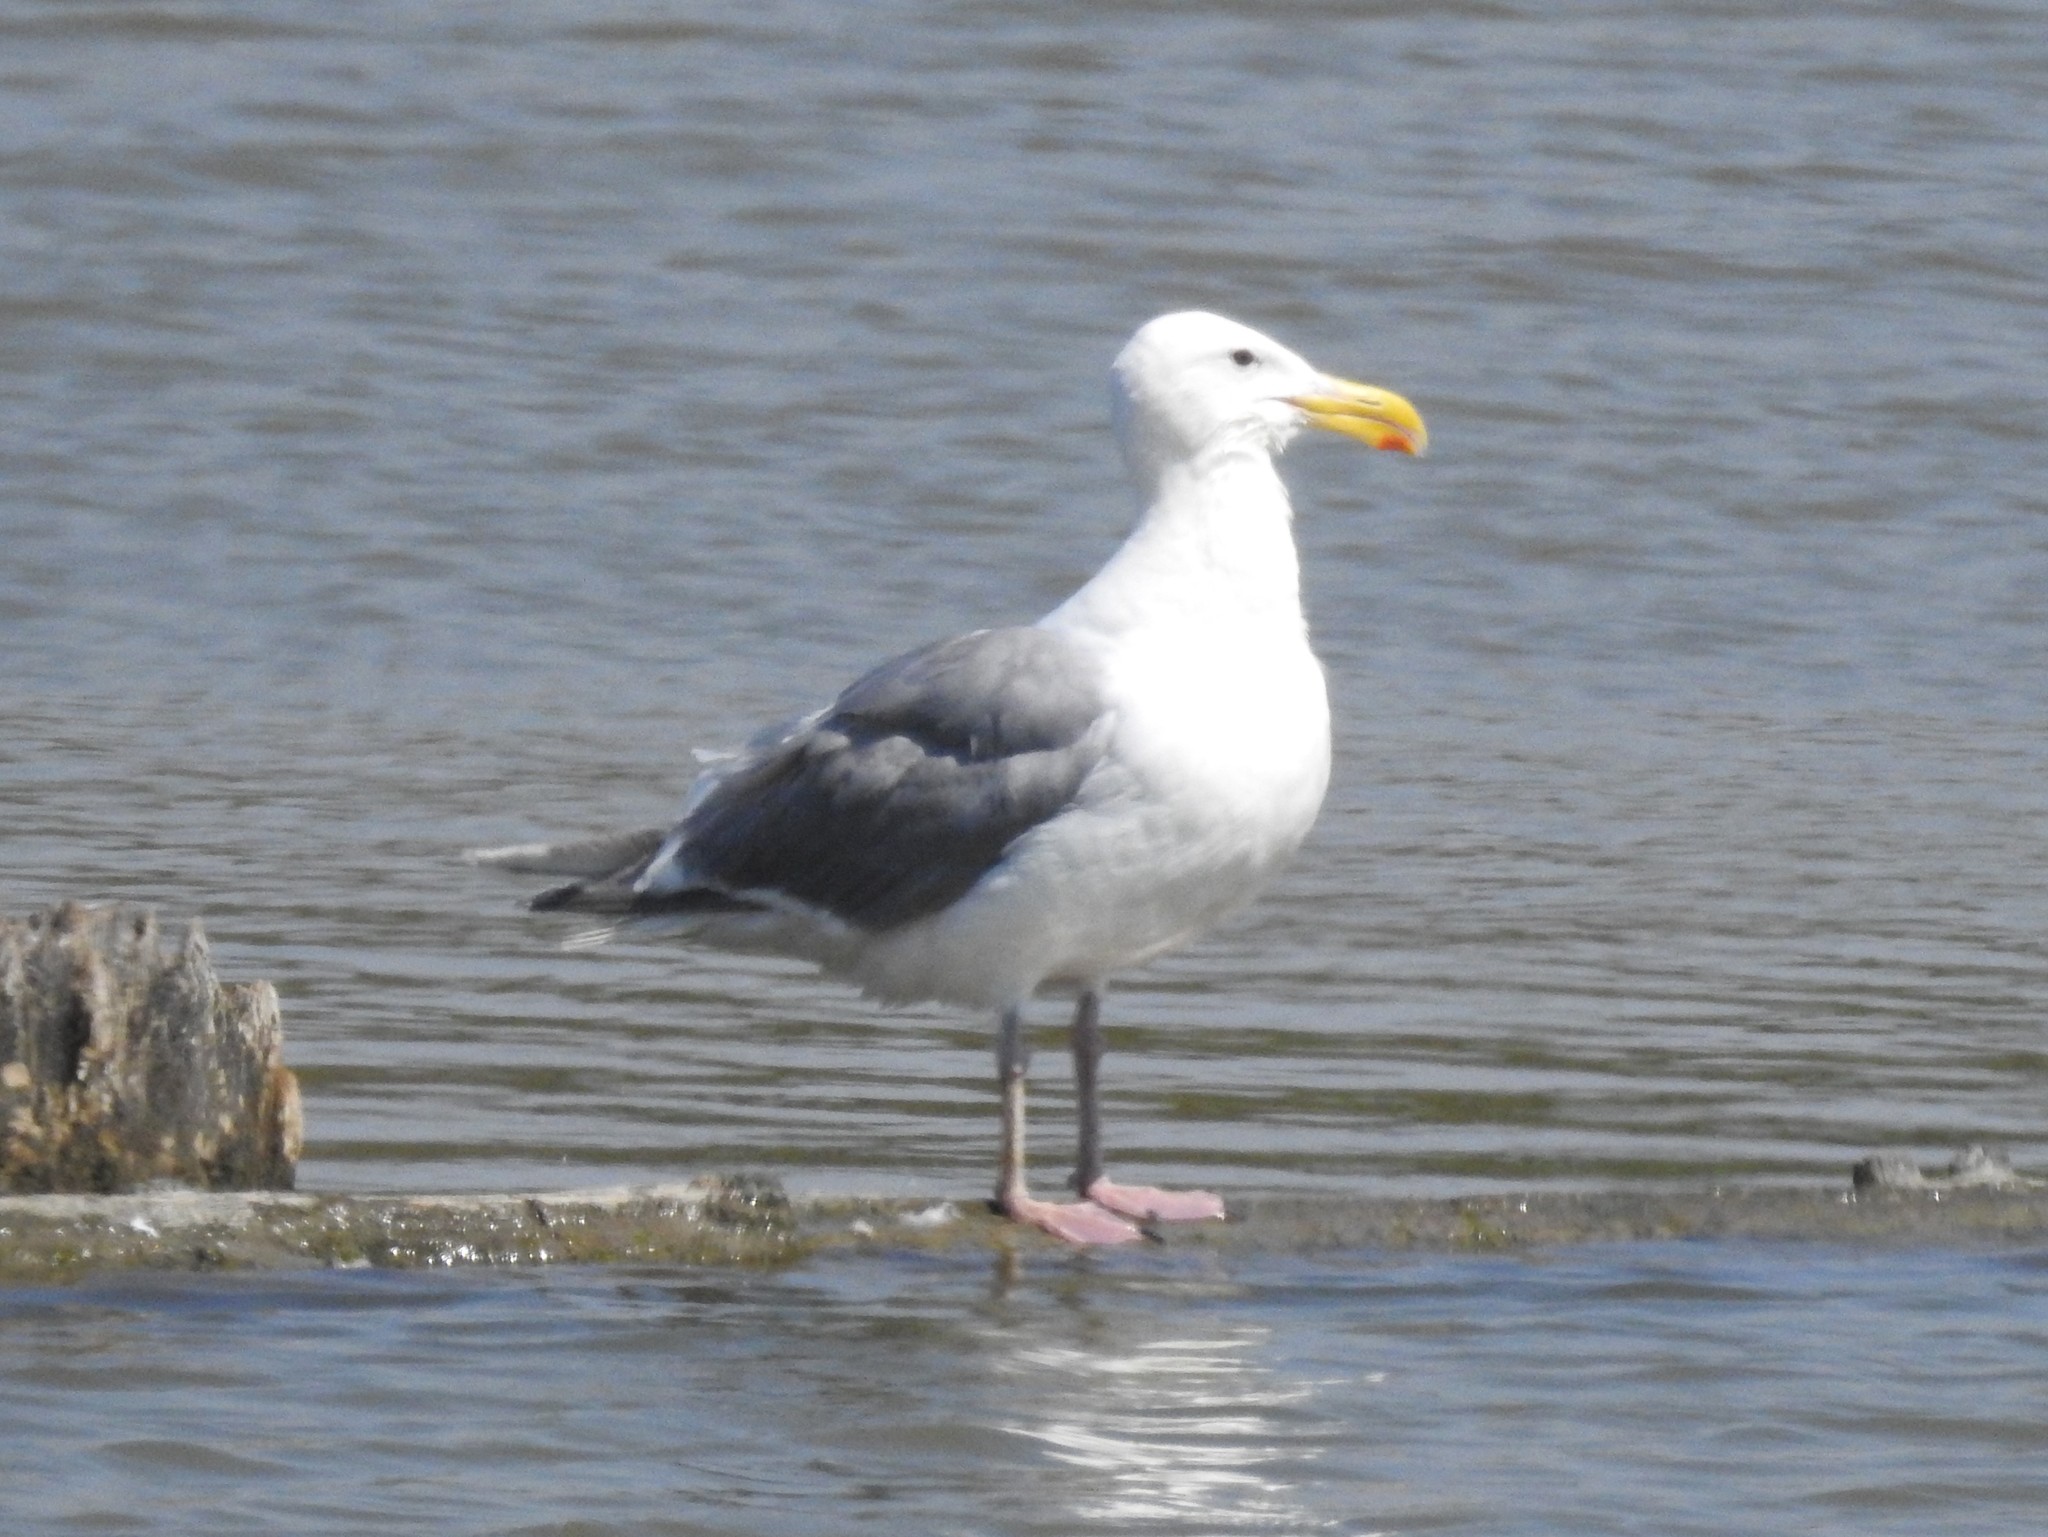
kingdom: Animalia
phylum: Chordata
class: Aves
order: Charadriiformes
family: Laridae
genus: Larus
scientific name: Larus
